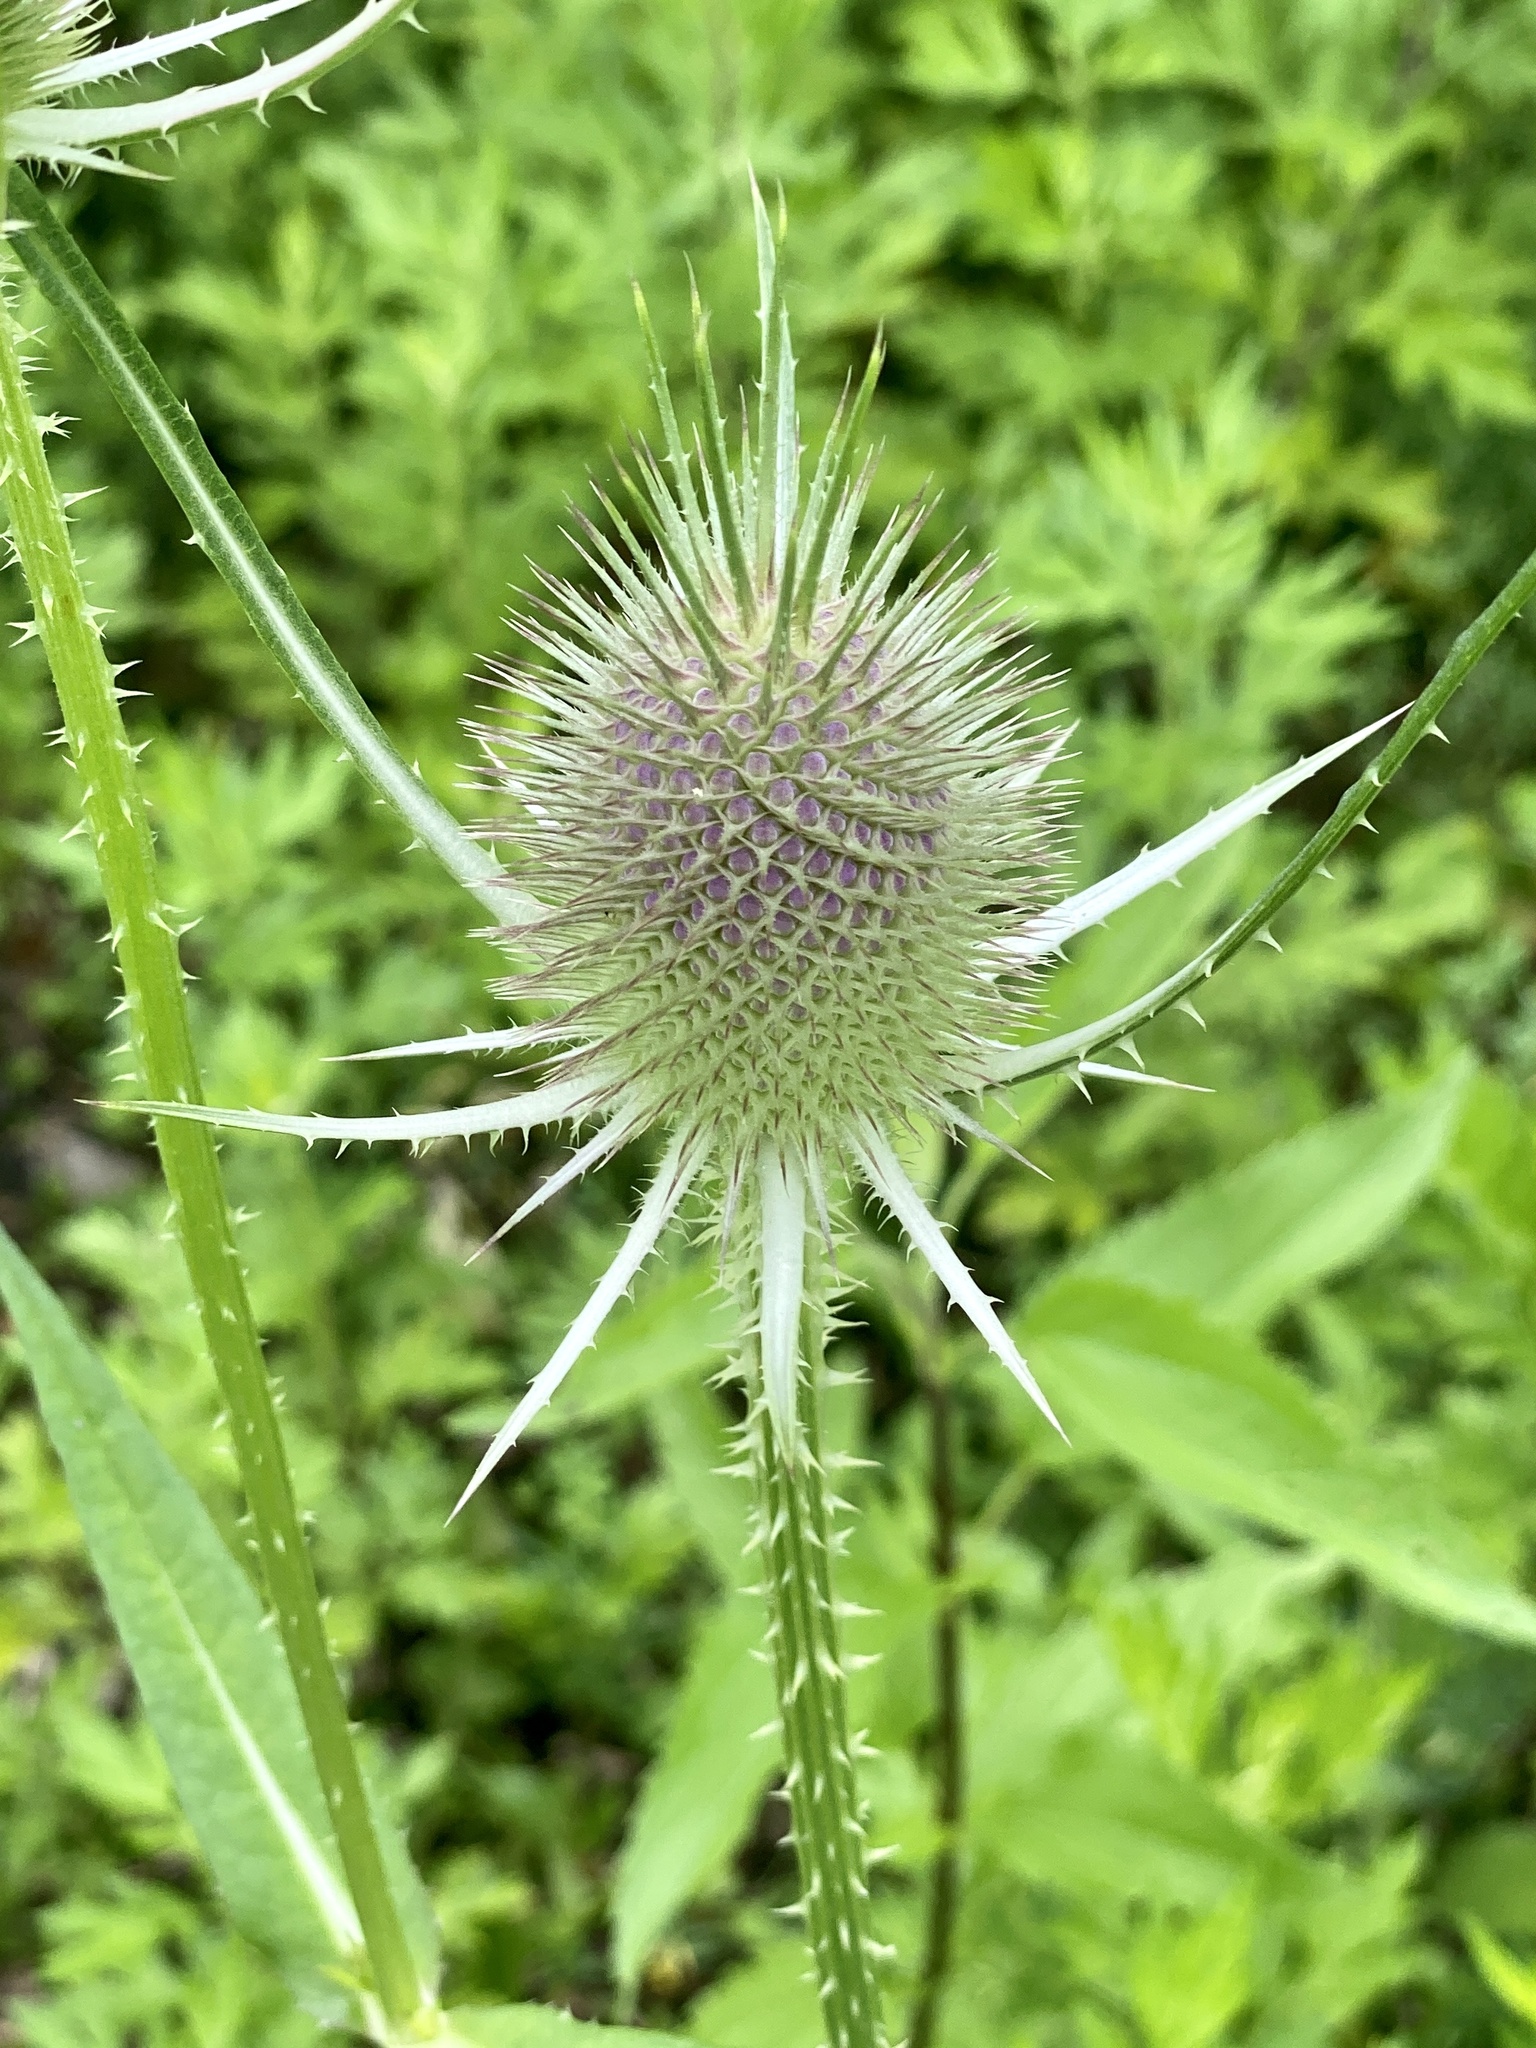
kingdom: Plantae
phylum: Tracheophyta
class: Magnoliopsida
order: Dipsacales
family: Caprifoliaceae
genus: Dipsacus
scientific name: Dipsacus fullonum
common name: Teasel
